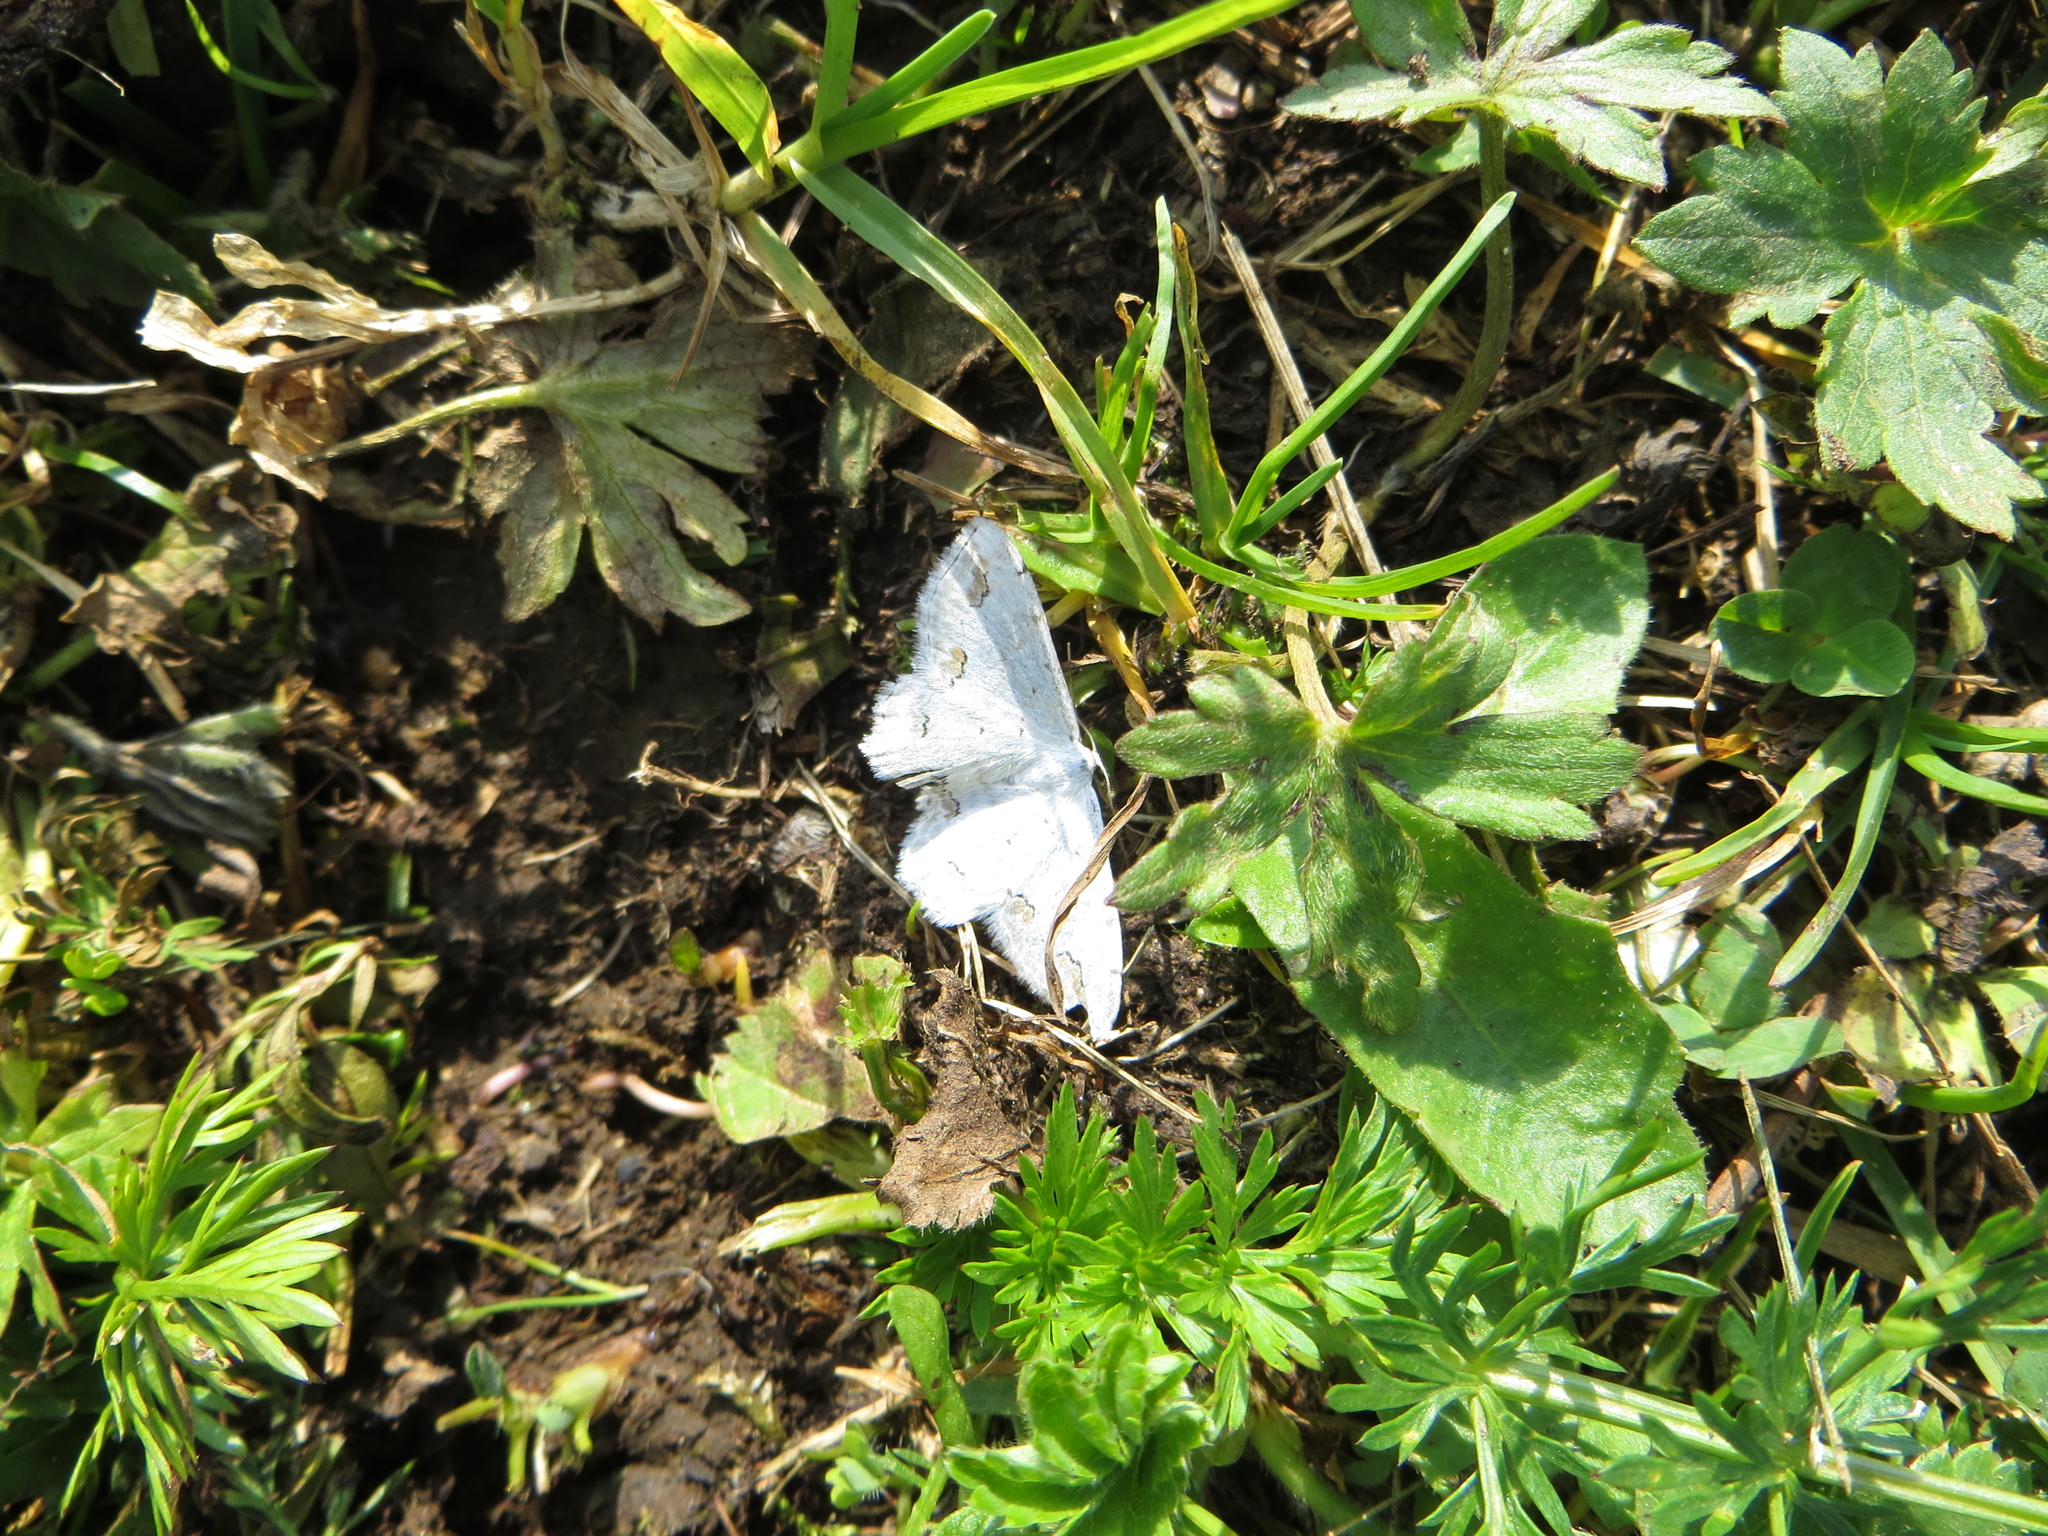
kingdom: Animalia
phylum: Arthropoda
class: Insecta
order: Lepidoptera
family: Geometridae
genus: Scopula
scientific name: Scopula ornata
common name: Lace border
